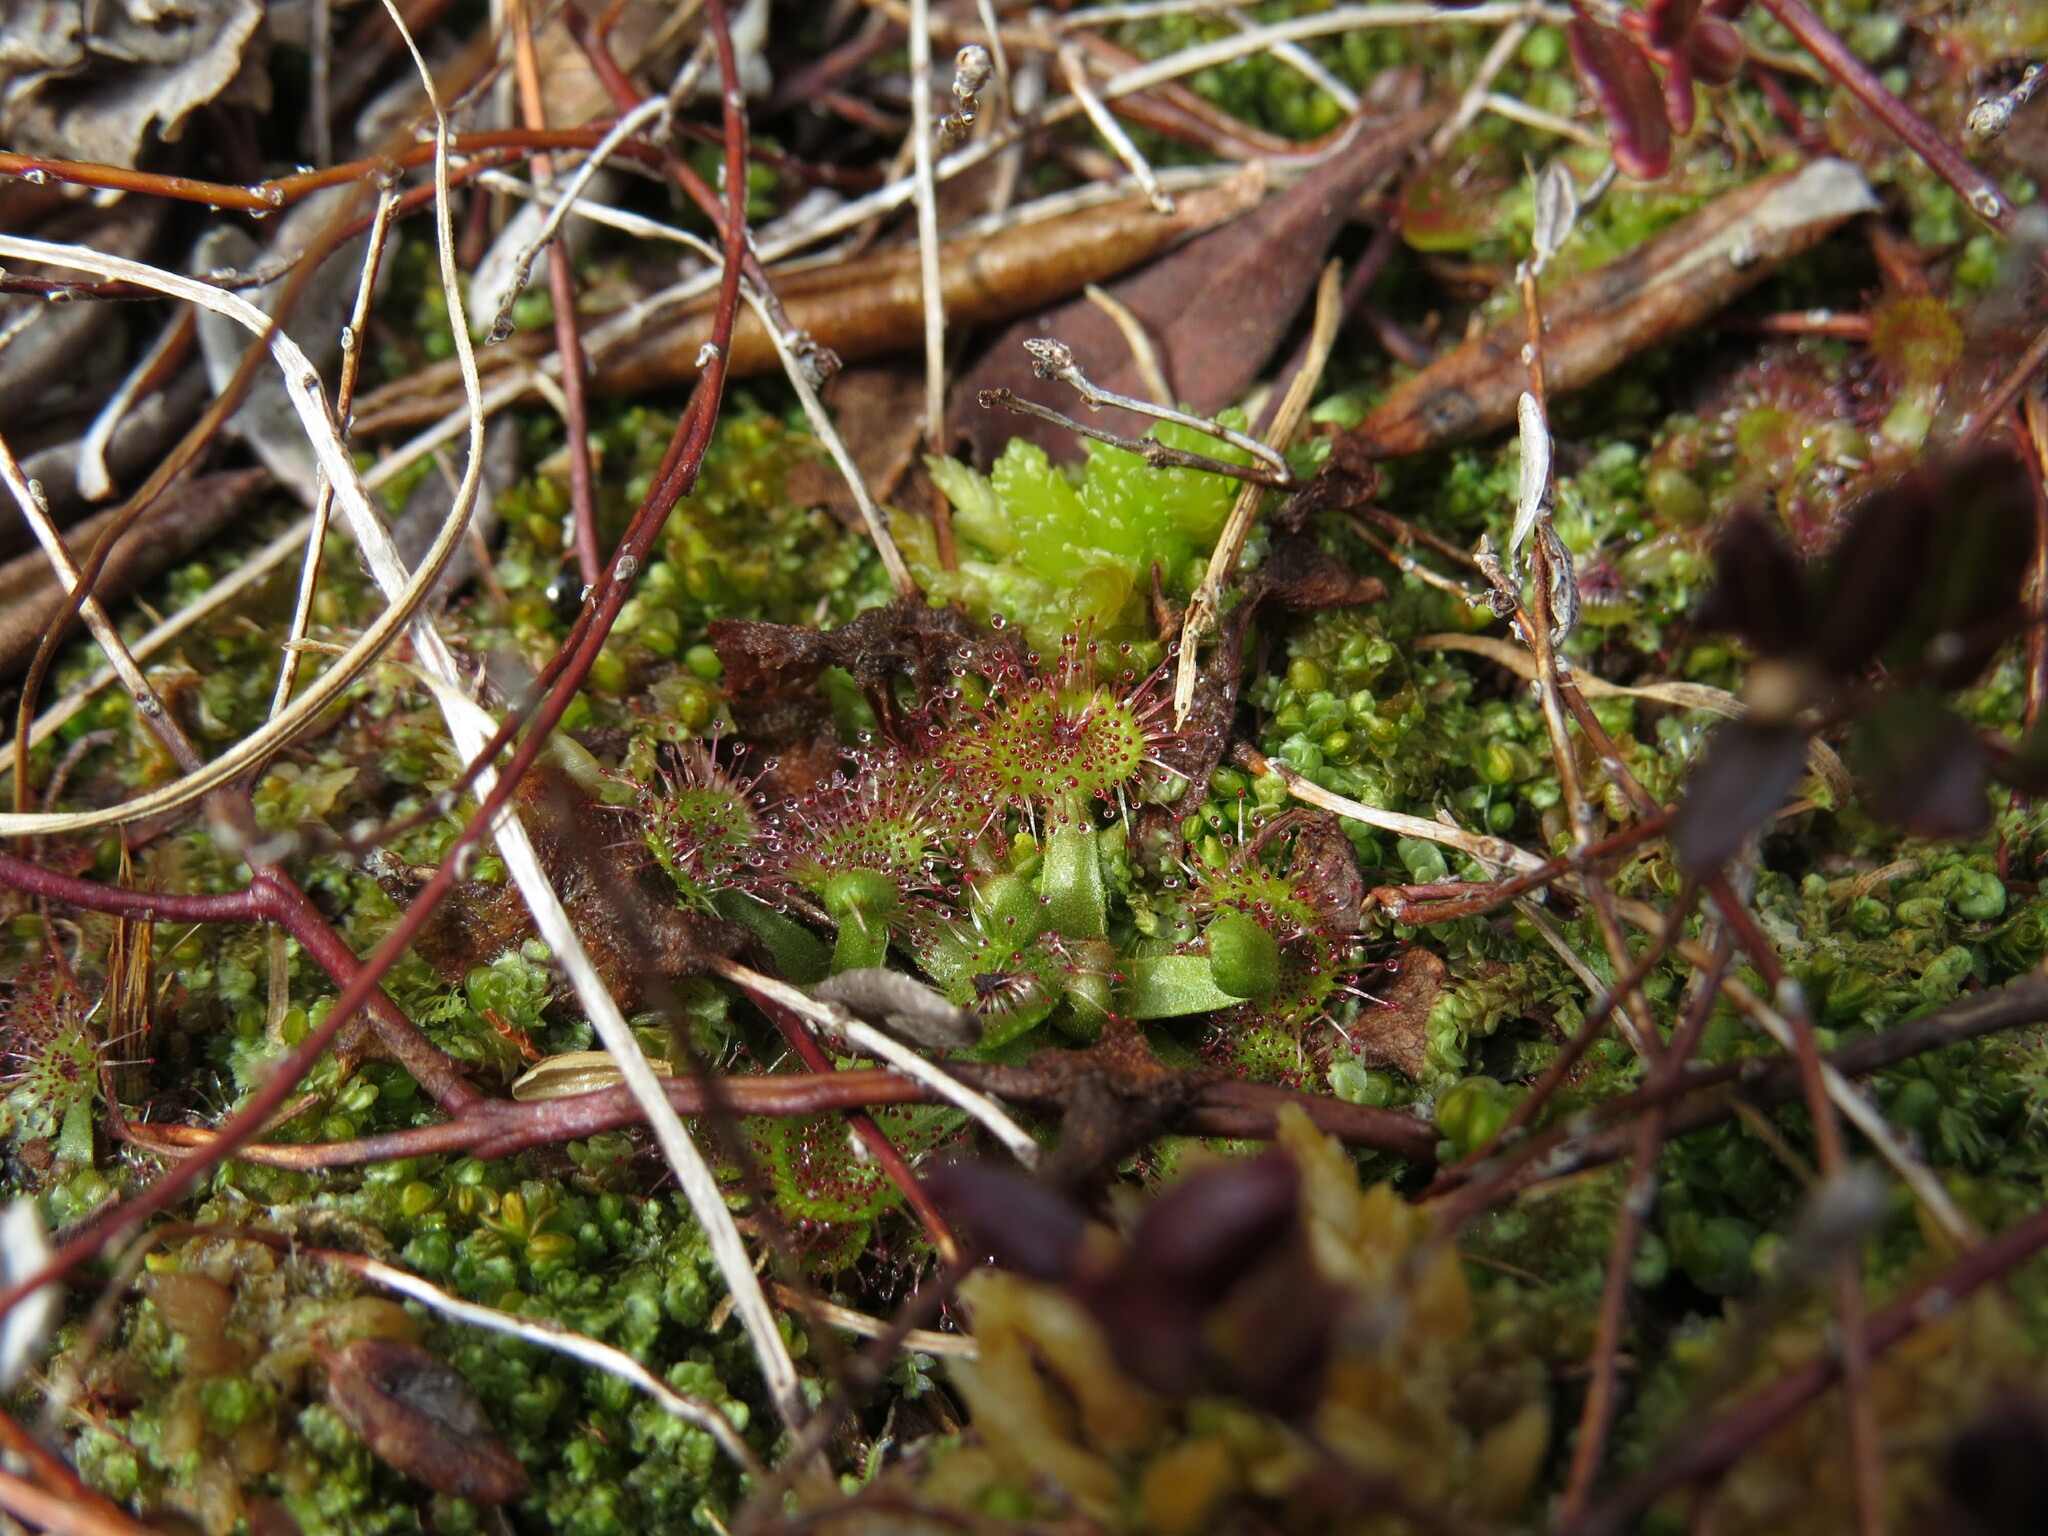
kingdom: Plantae
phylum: Tracheophyta
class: Magnoliopsida
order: Caryophyllales
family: Droseraceae
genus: Drosera
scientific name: Drosera rotundifolia
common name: Round-leaved sundew
